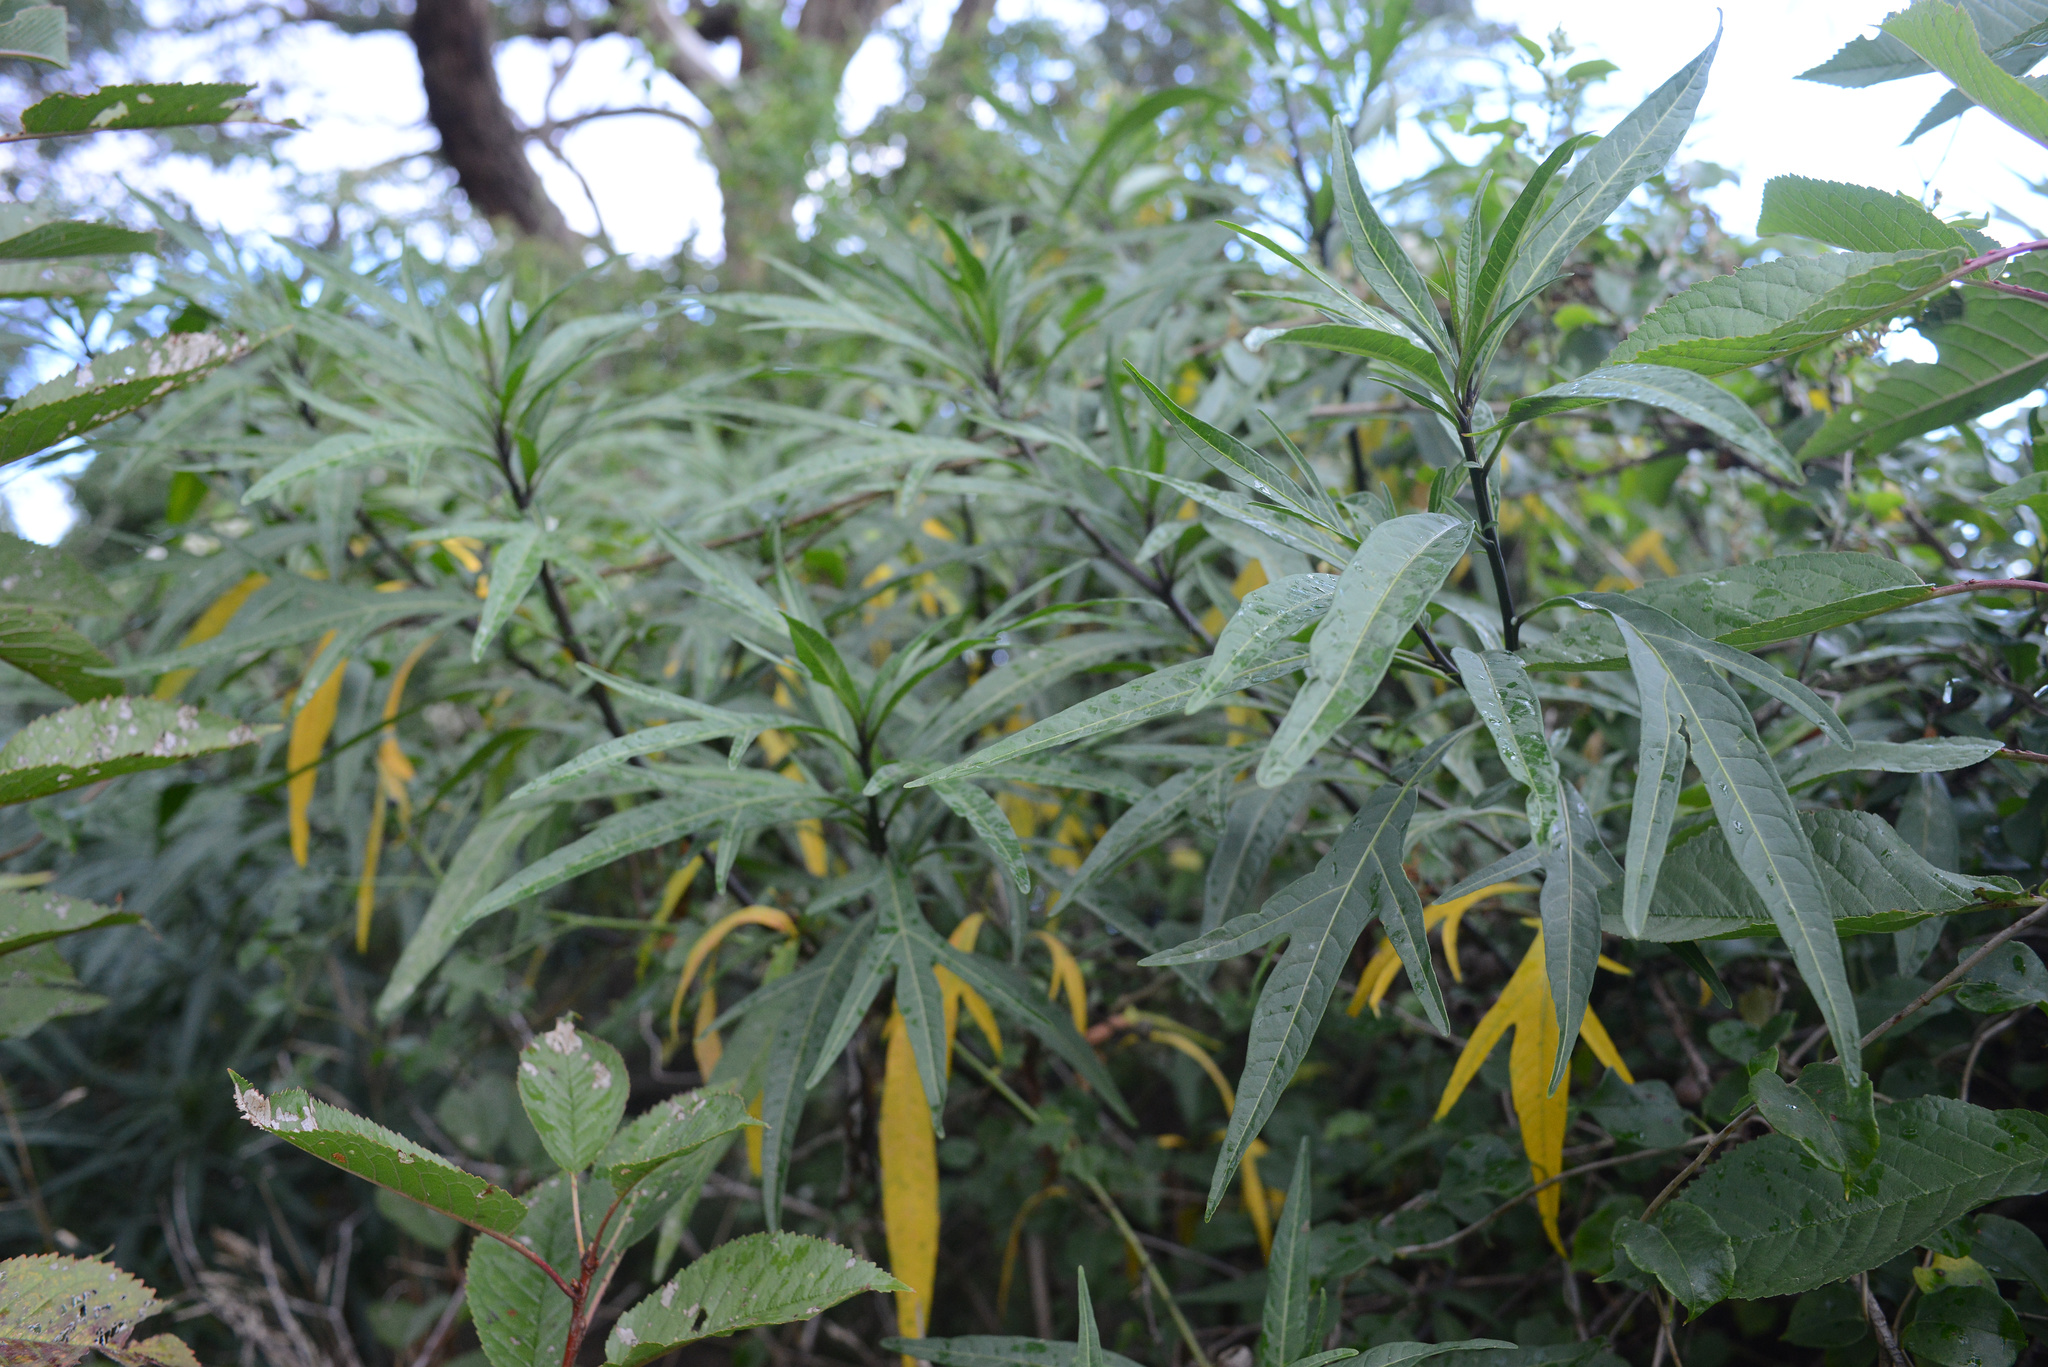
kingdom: Plantae
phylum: Tracheophyta
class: Magnoliopsida
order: Solanales
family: Solanaceae
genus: Solanum
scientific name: Solanum laciniatum
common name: Kangaroo-apple
